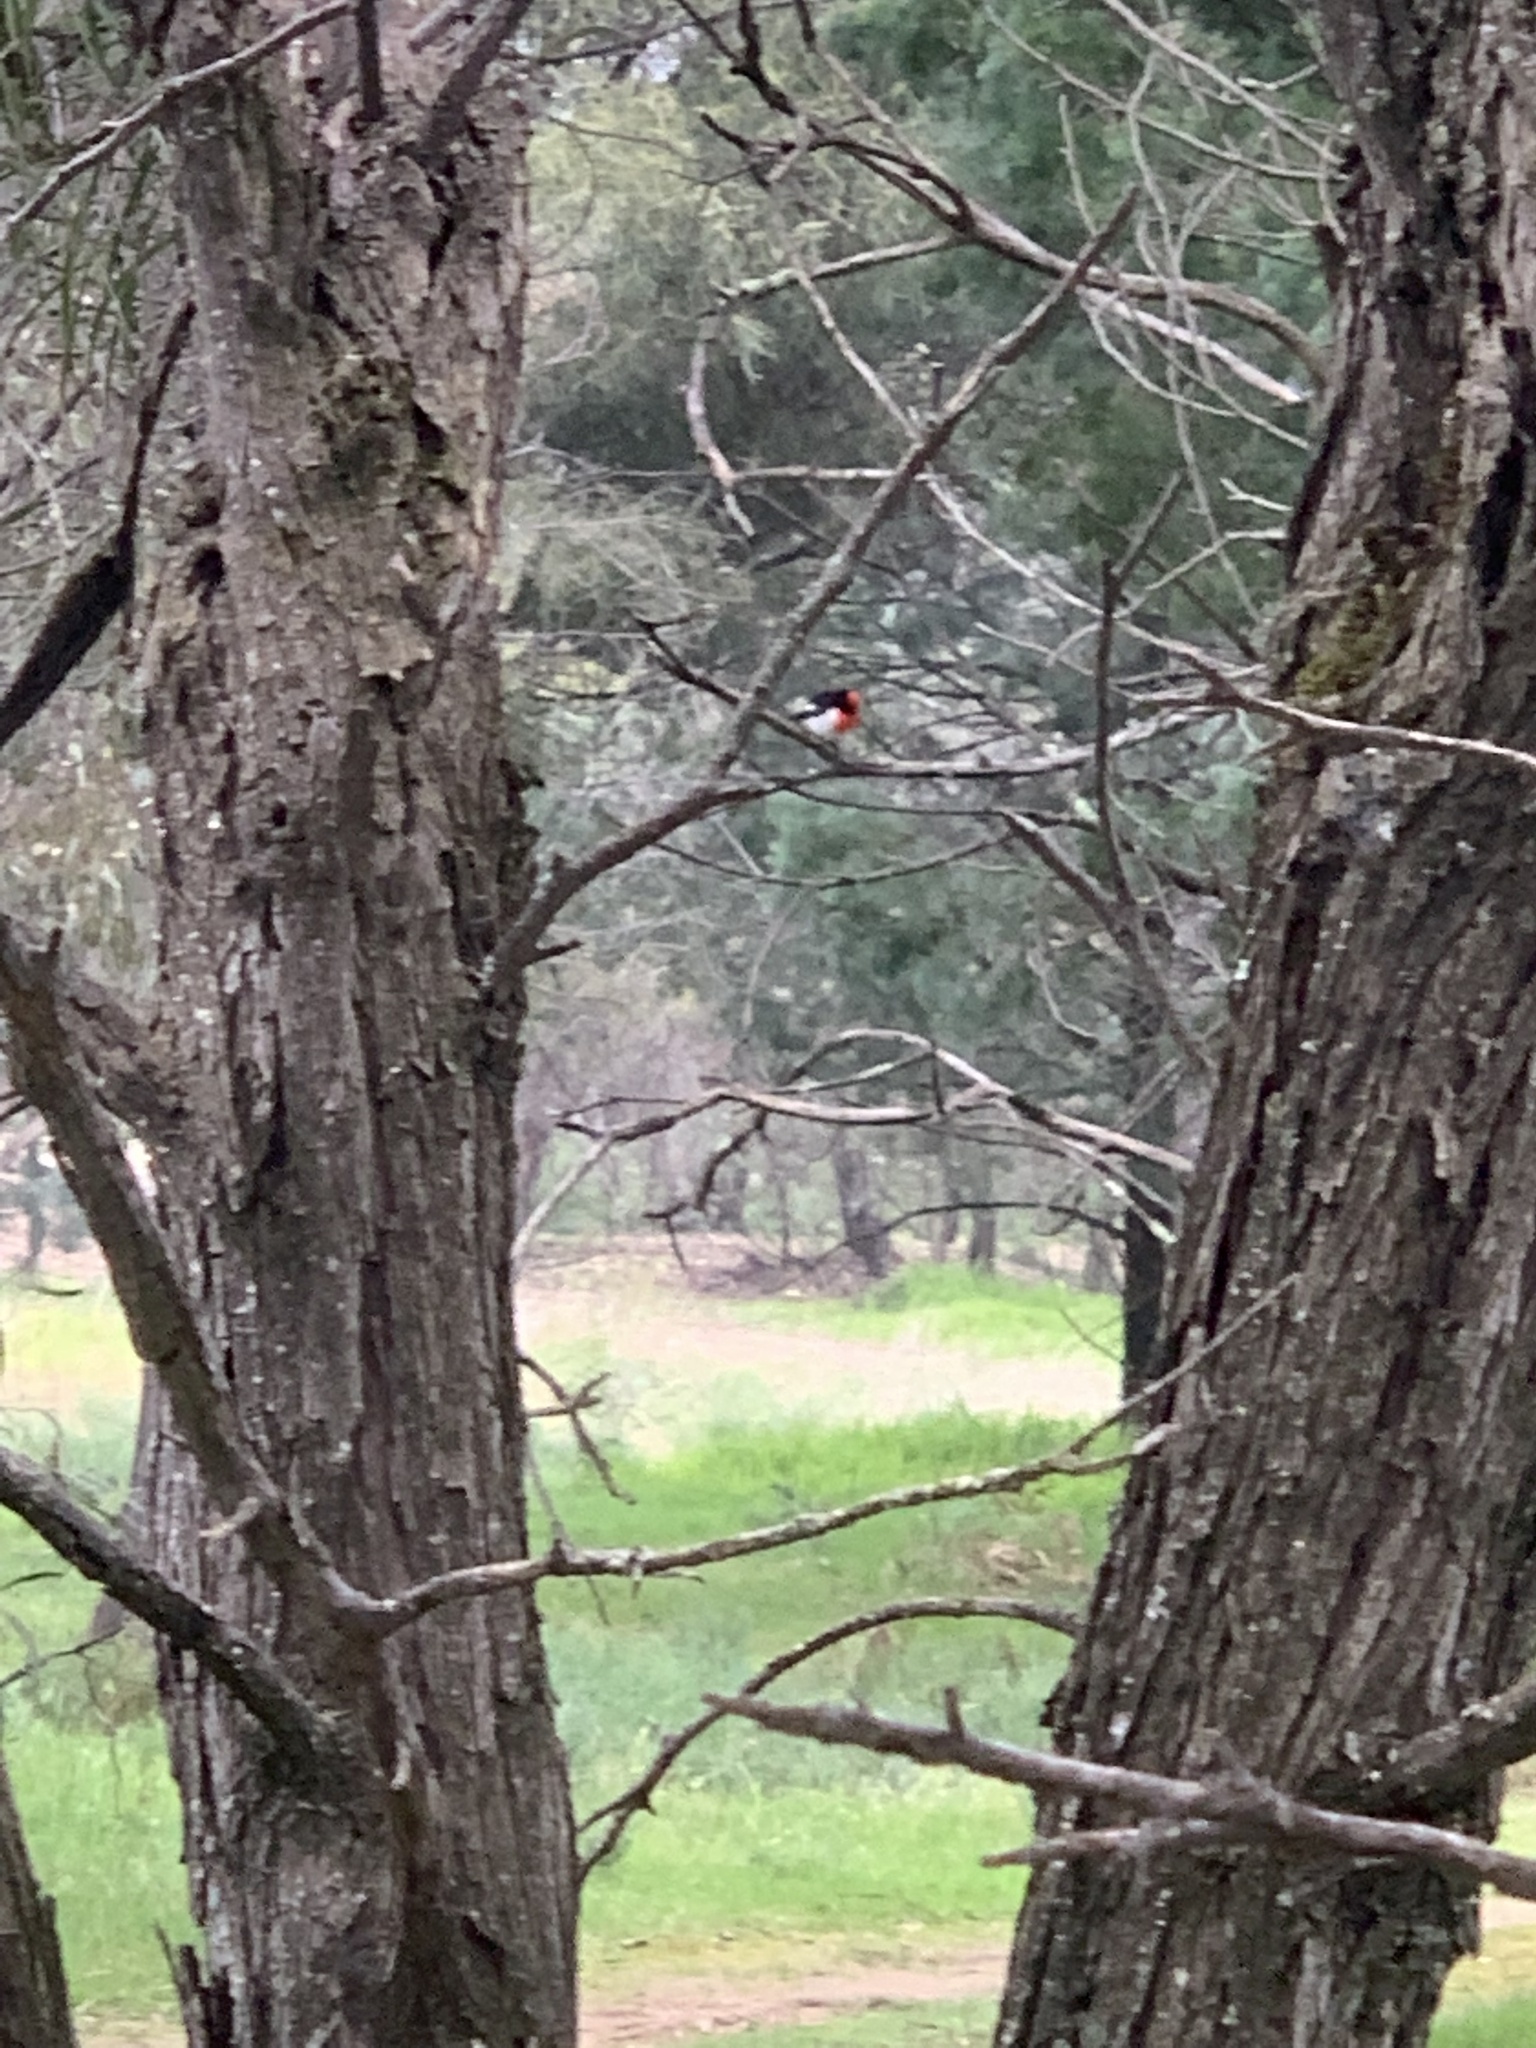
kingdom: Animalia
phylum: Chordata
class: Aves
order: Passeriformes
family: Petroicidae
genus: Petroica
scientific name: Petroica goodenovii
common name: Red-capped robin
